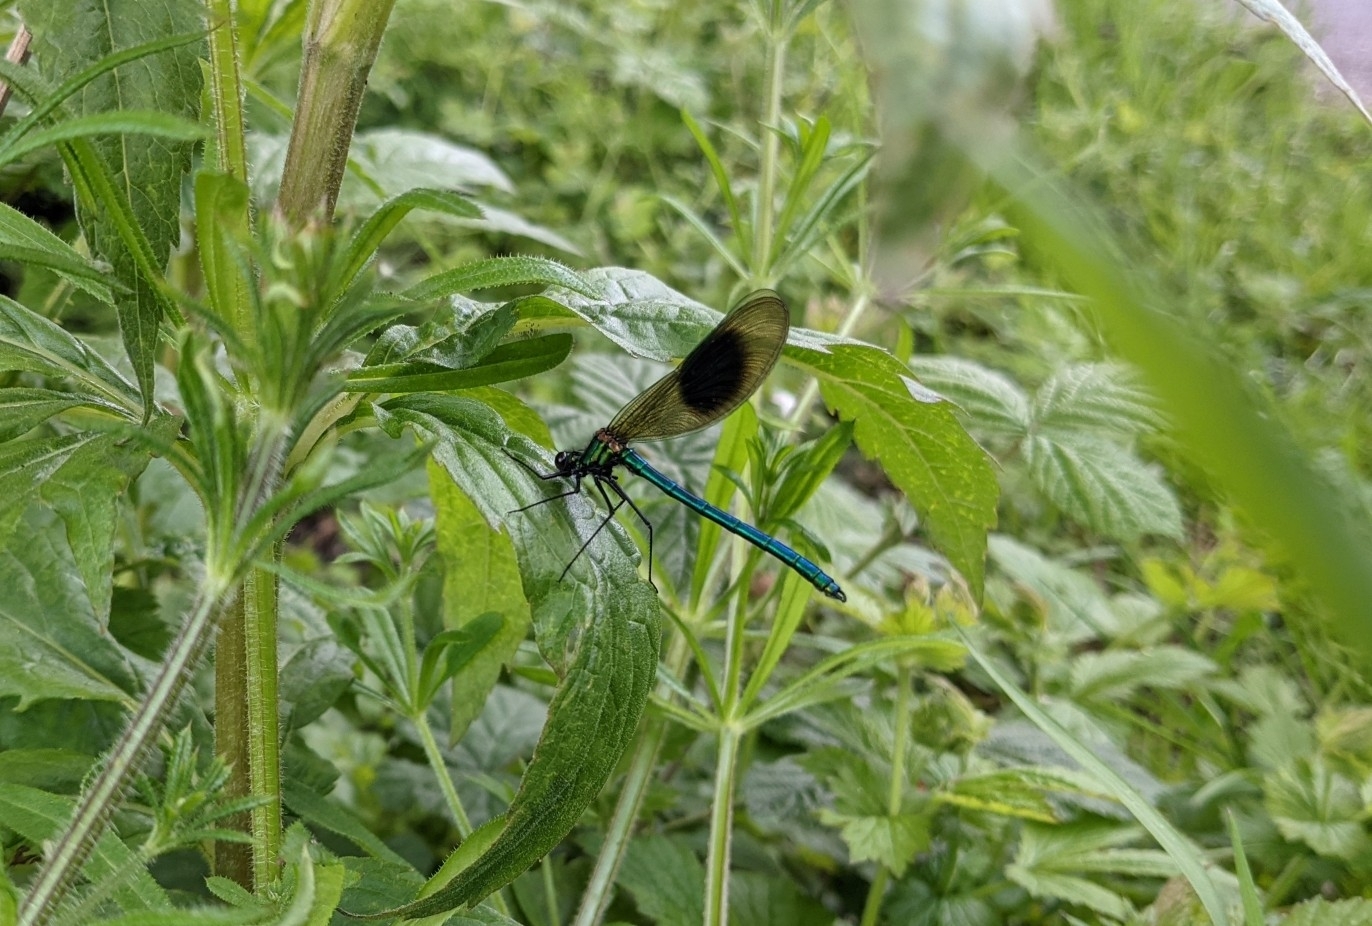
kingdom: Animalia
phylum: Arthropoda
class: Insecta
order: Odonata
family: Calopterygidae
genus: Calopteryx
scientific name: Calopteryx splendens
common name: Banded demoiselle
